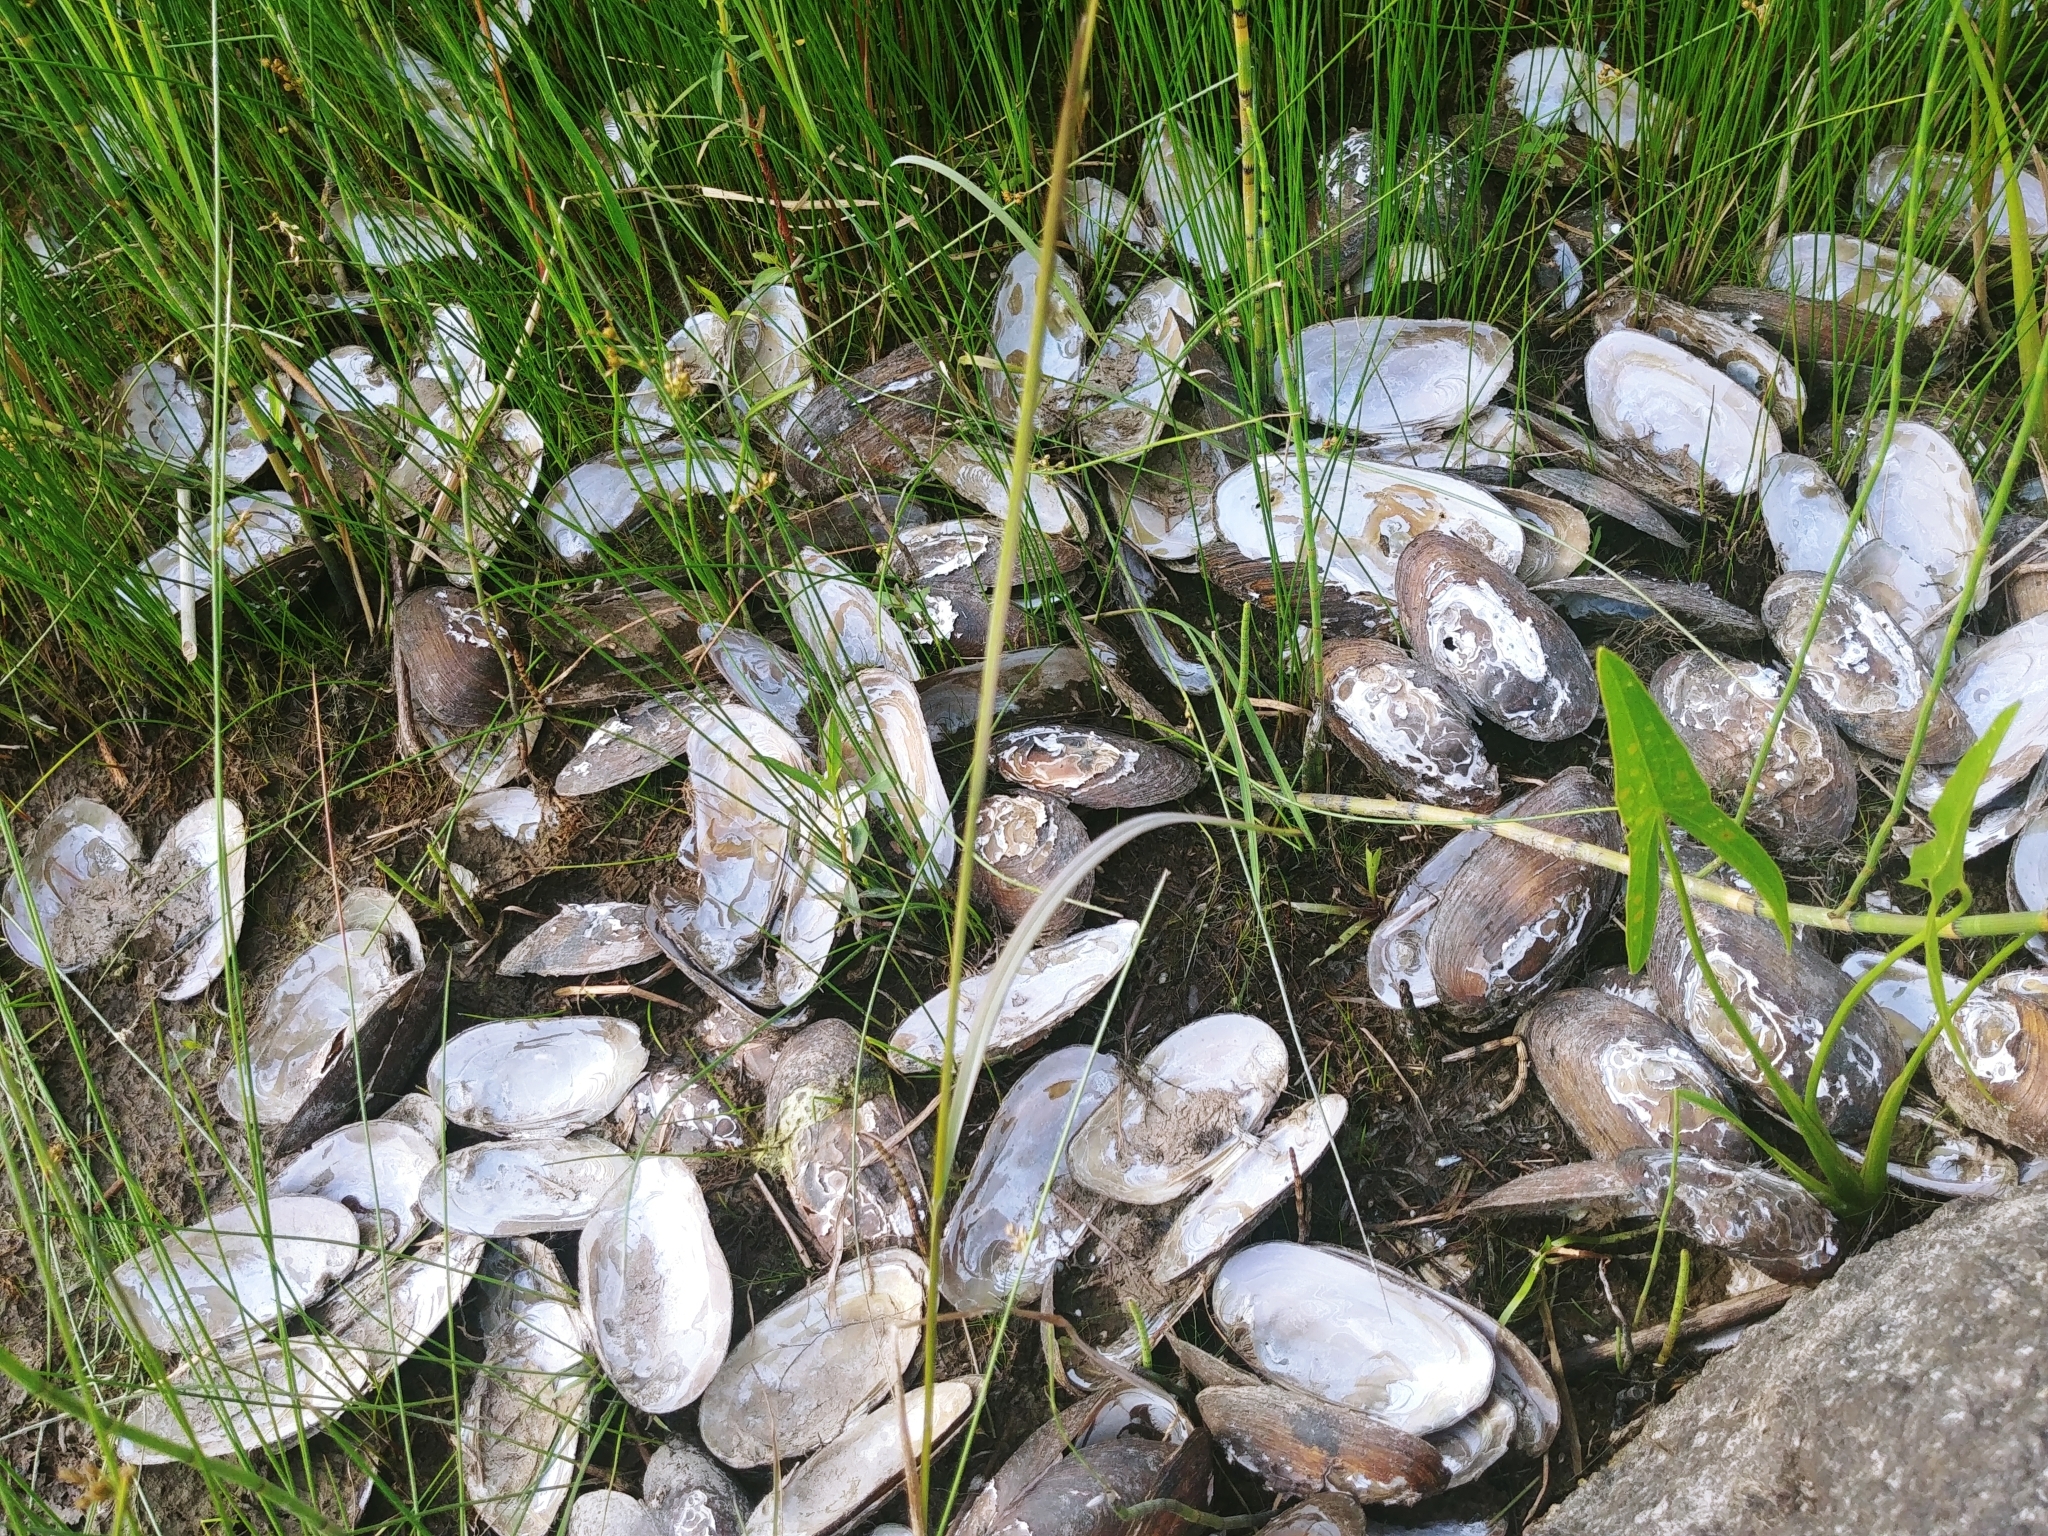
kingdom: Animalia
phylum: Mollusca
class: Bivalvia
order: Unionida
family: Unionidae
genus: Elliptio
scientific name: Elliptio complanata
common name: Eastern elliptio
